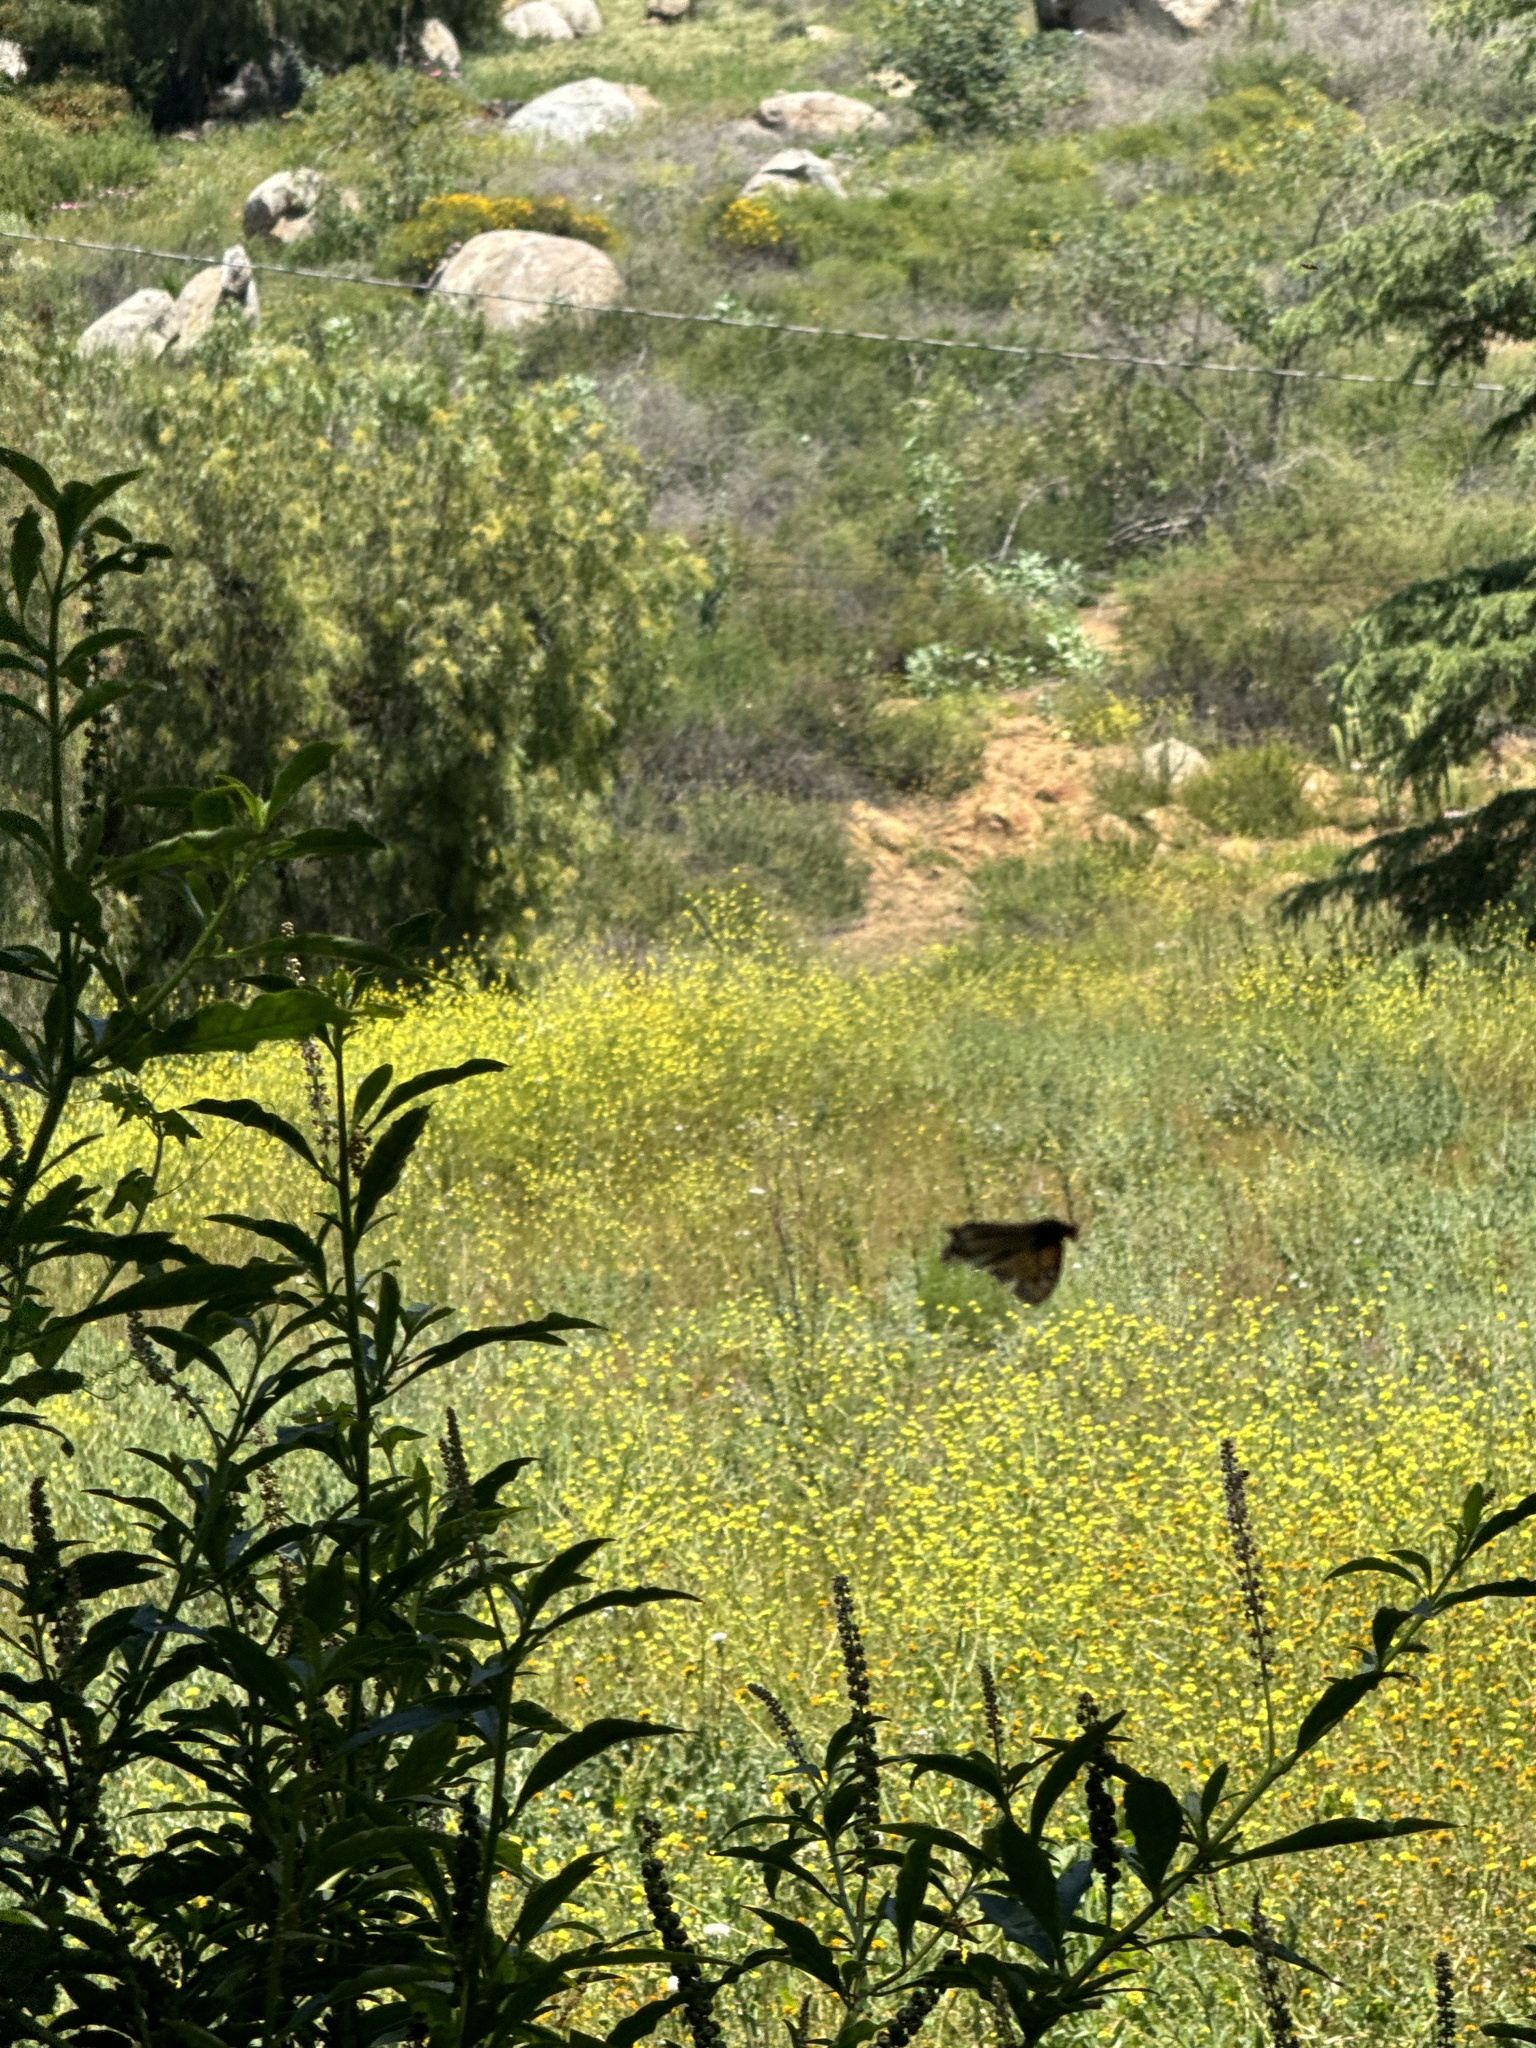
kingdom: Animalia
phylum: Arthropoda
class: Insecta
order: Lepidoptera
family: Nymphalidae
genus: Danaus
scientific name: Danaus plexippus
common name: Monarch
